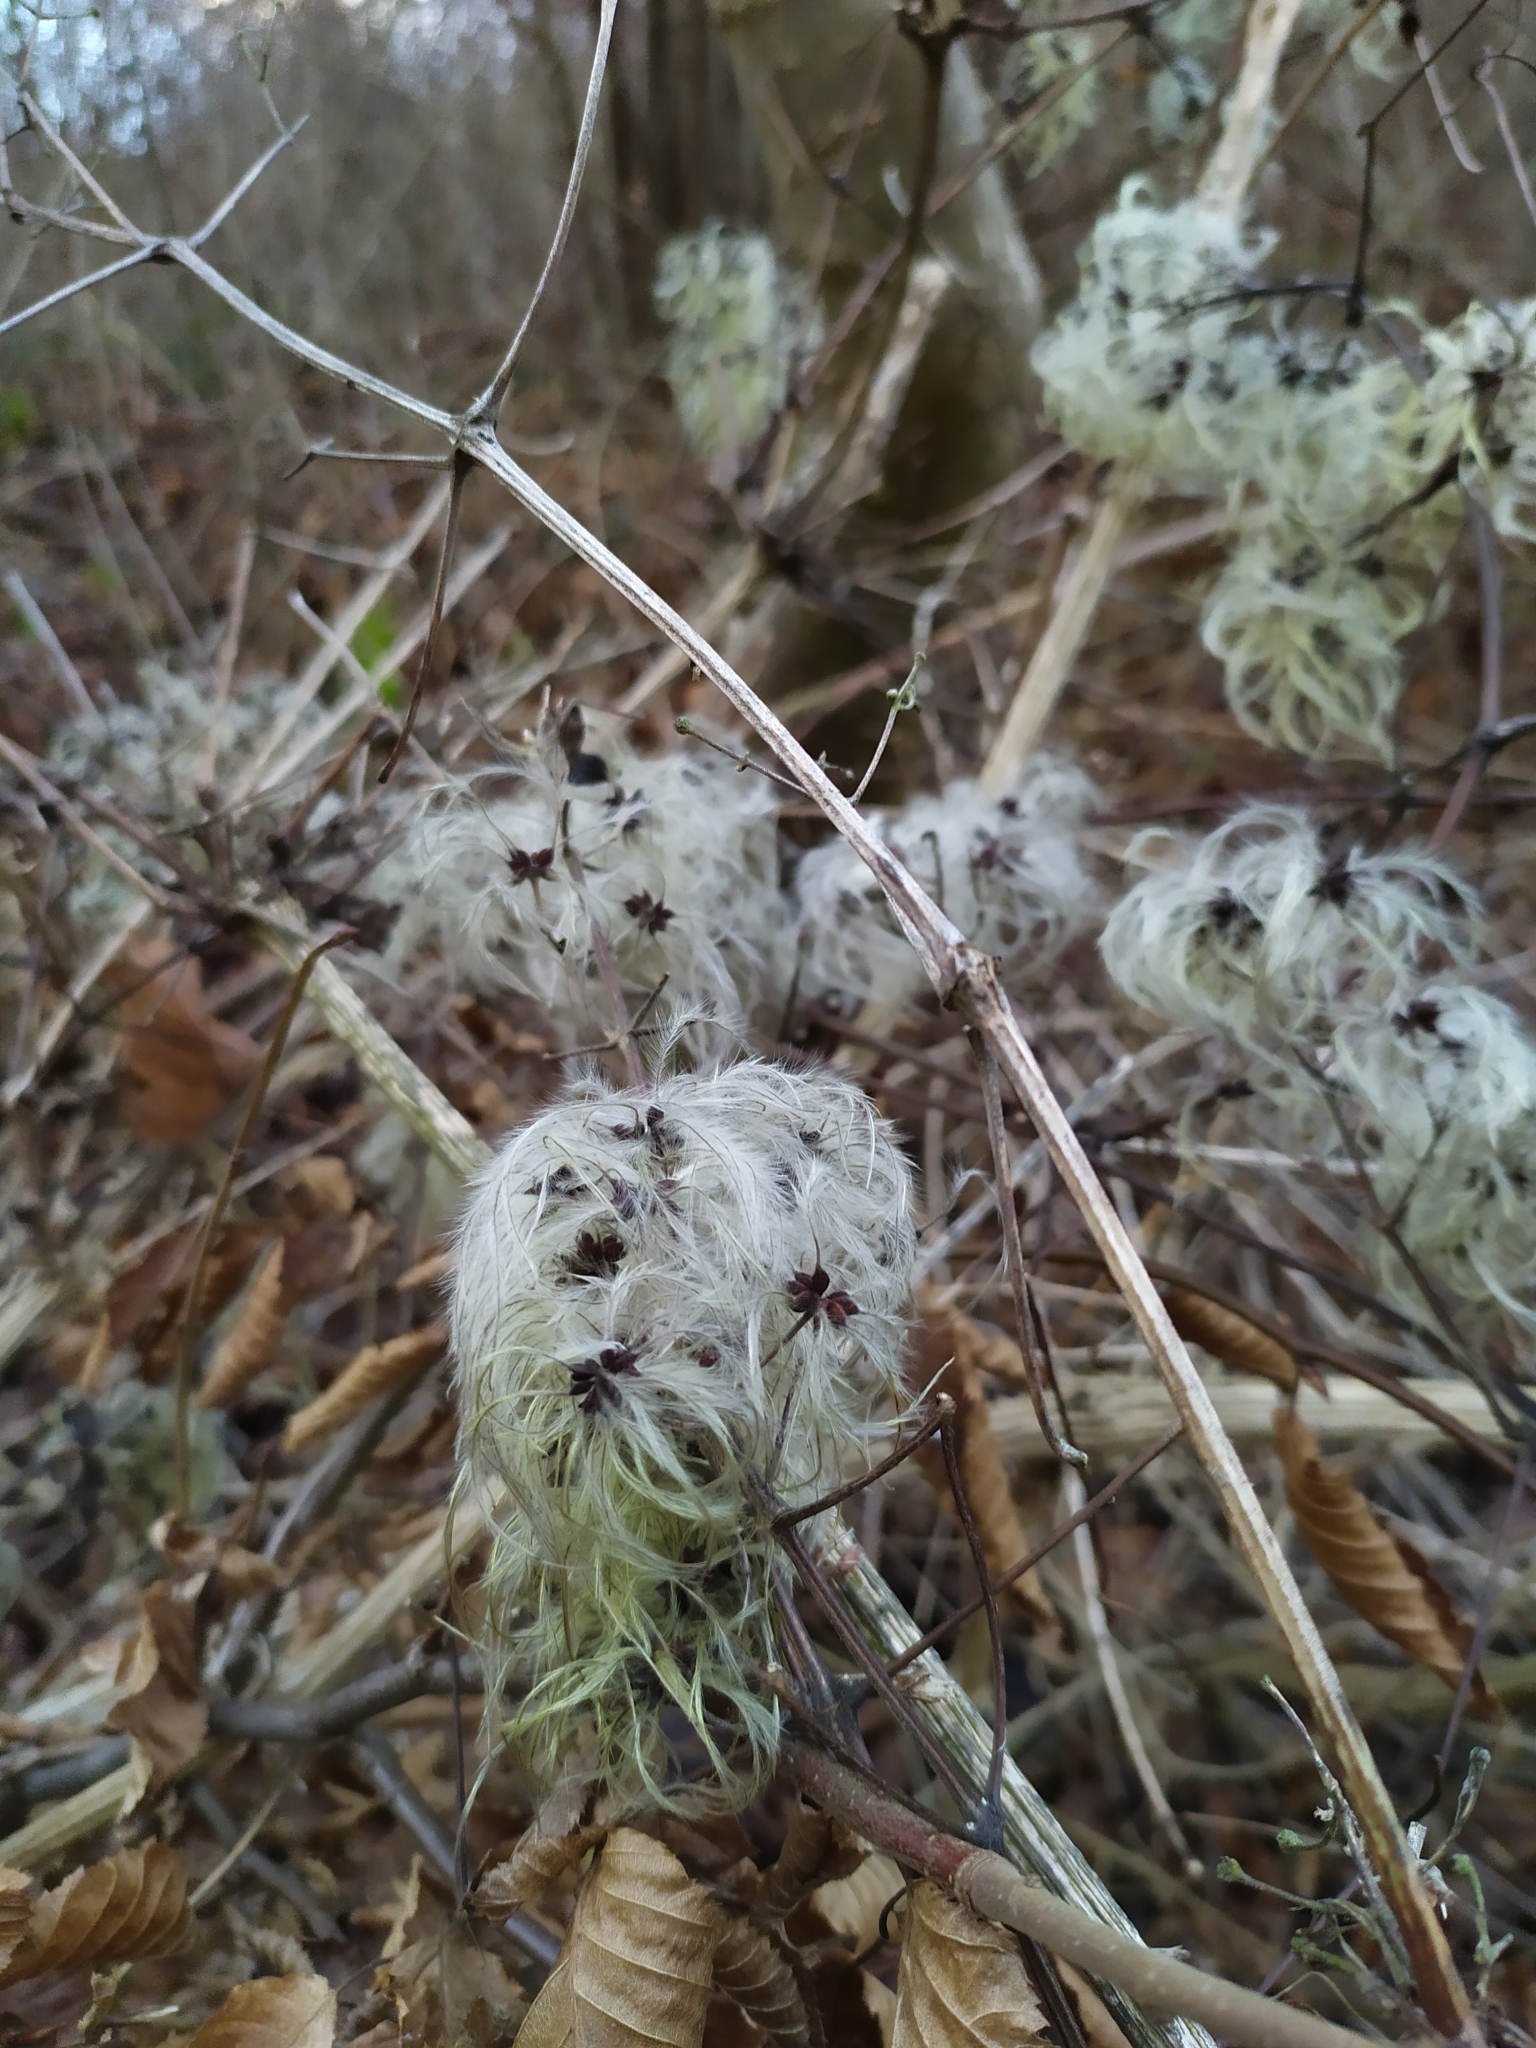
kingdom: Plantae
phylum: Tracheophyta
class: Magnoliopsida
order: Ranunculales
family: Ranunculaceae
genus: Clematis
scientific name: Clematis vitalba
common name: Evergreen clematis
